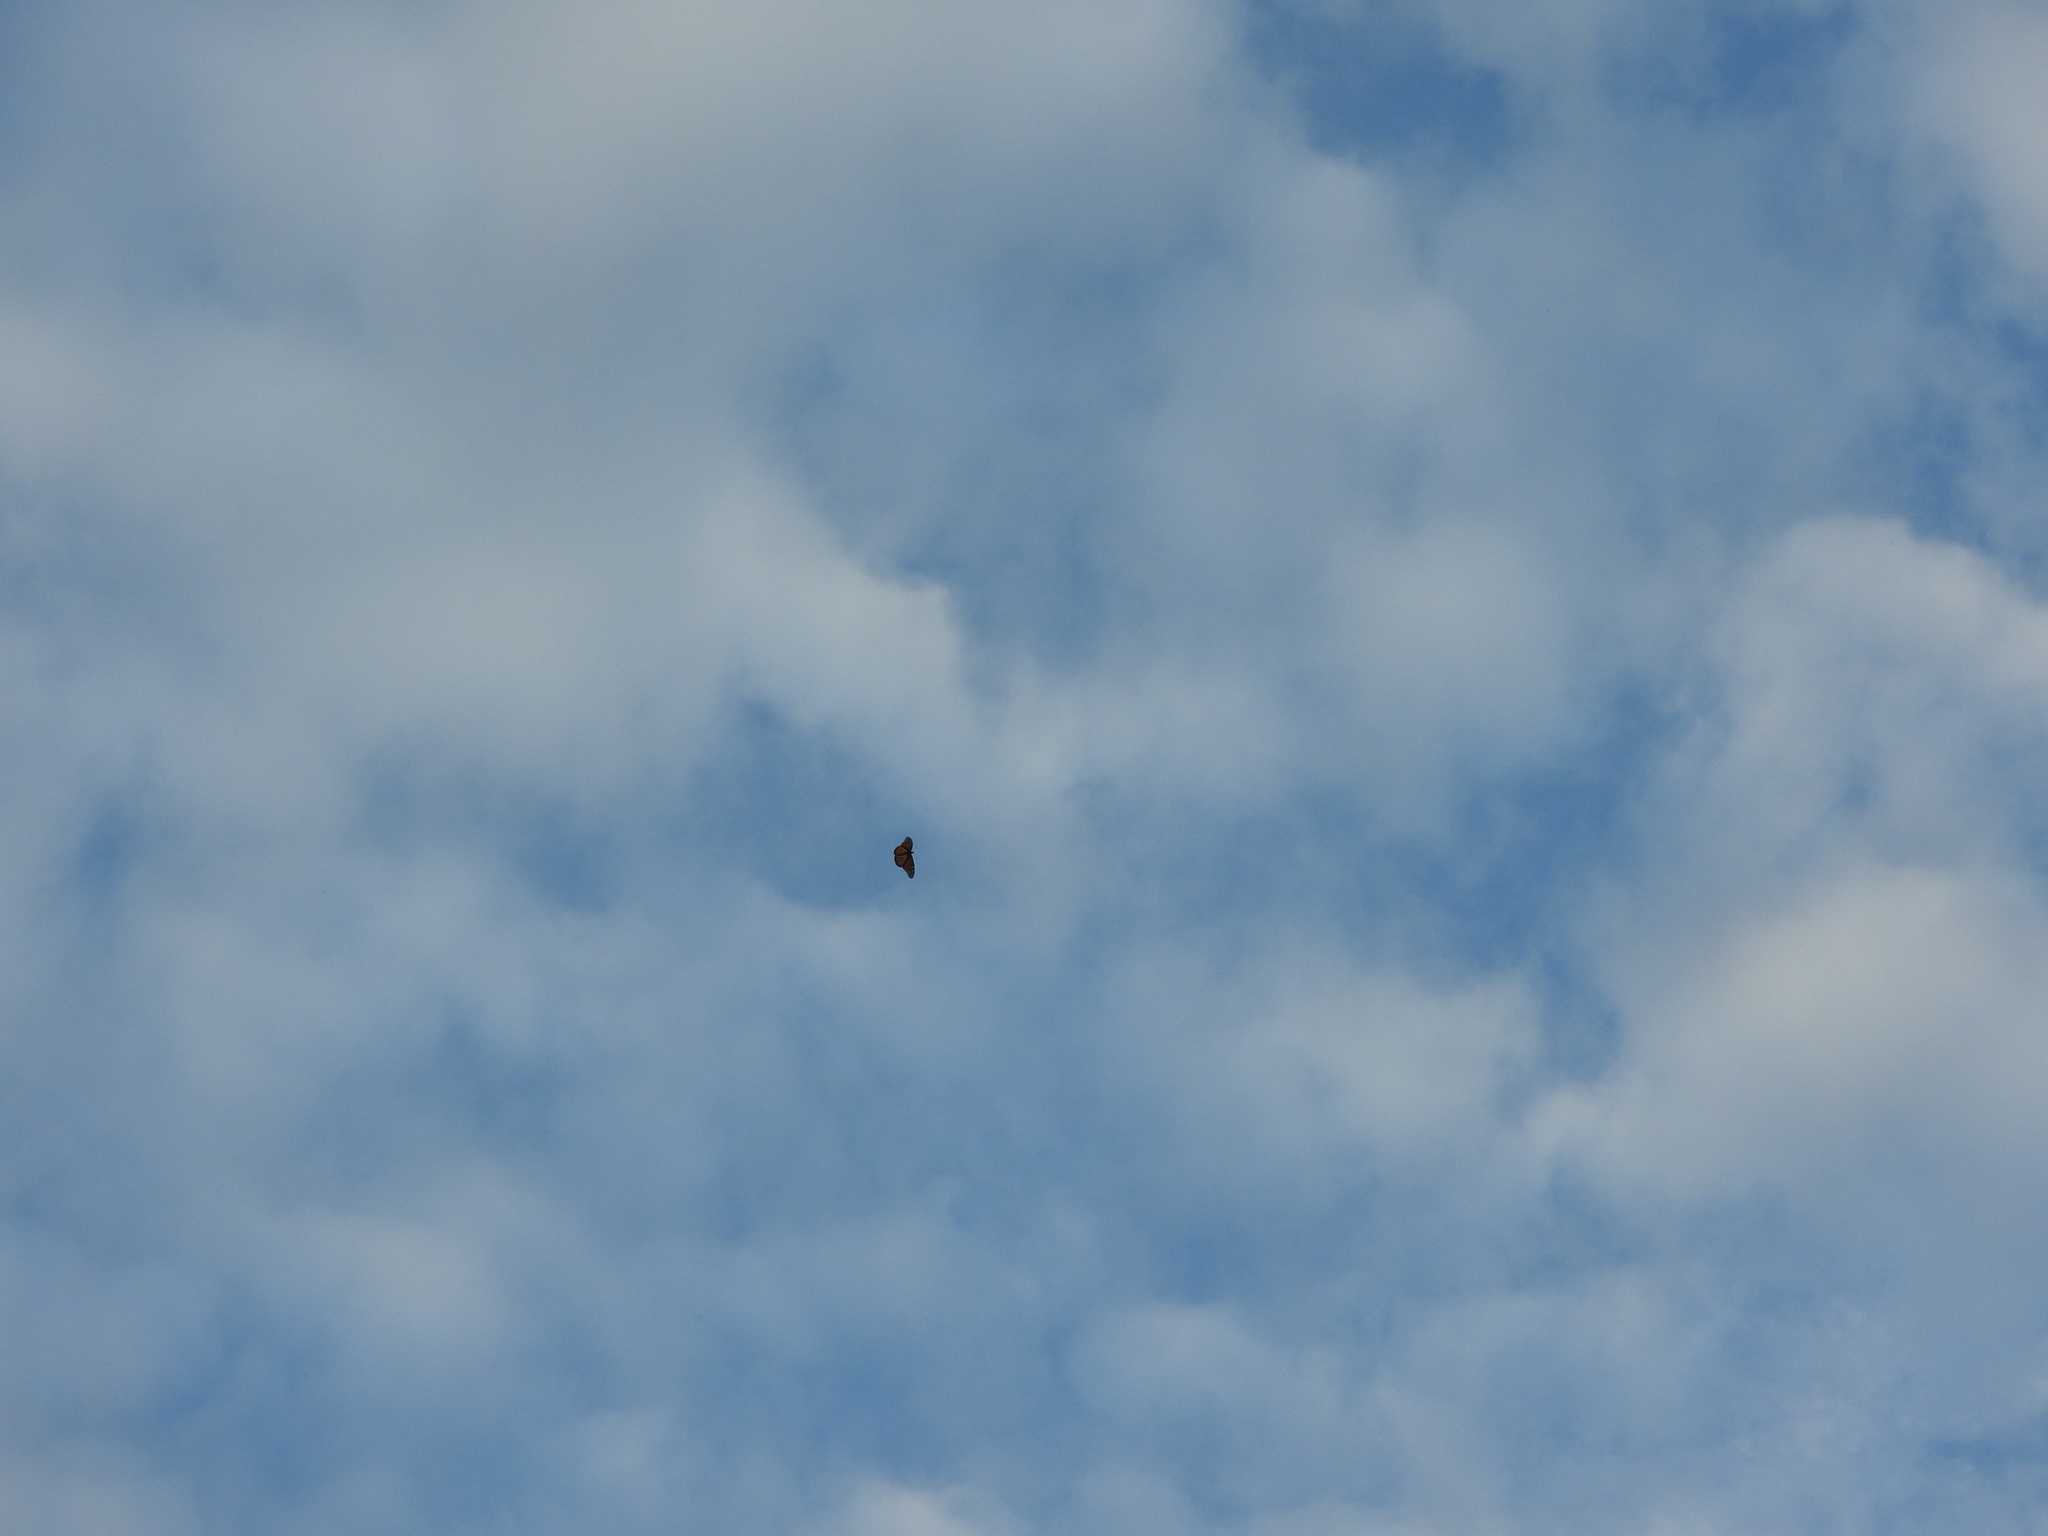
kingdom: Animalia
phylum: Arthropoda
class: Insecta
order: Lepidoptera
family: Nymphalidae
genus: Danaus
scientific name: Danaus plexippus
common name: Monarch
